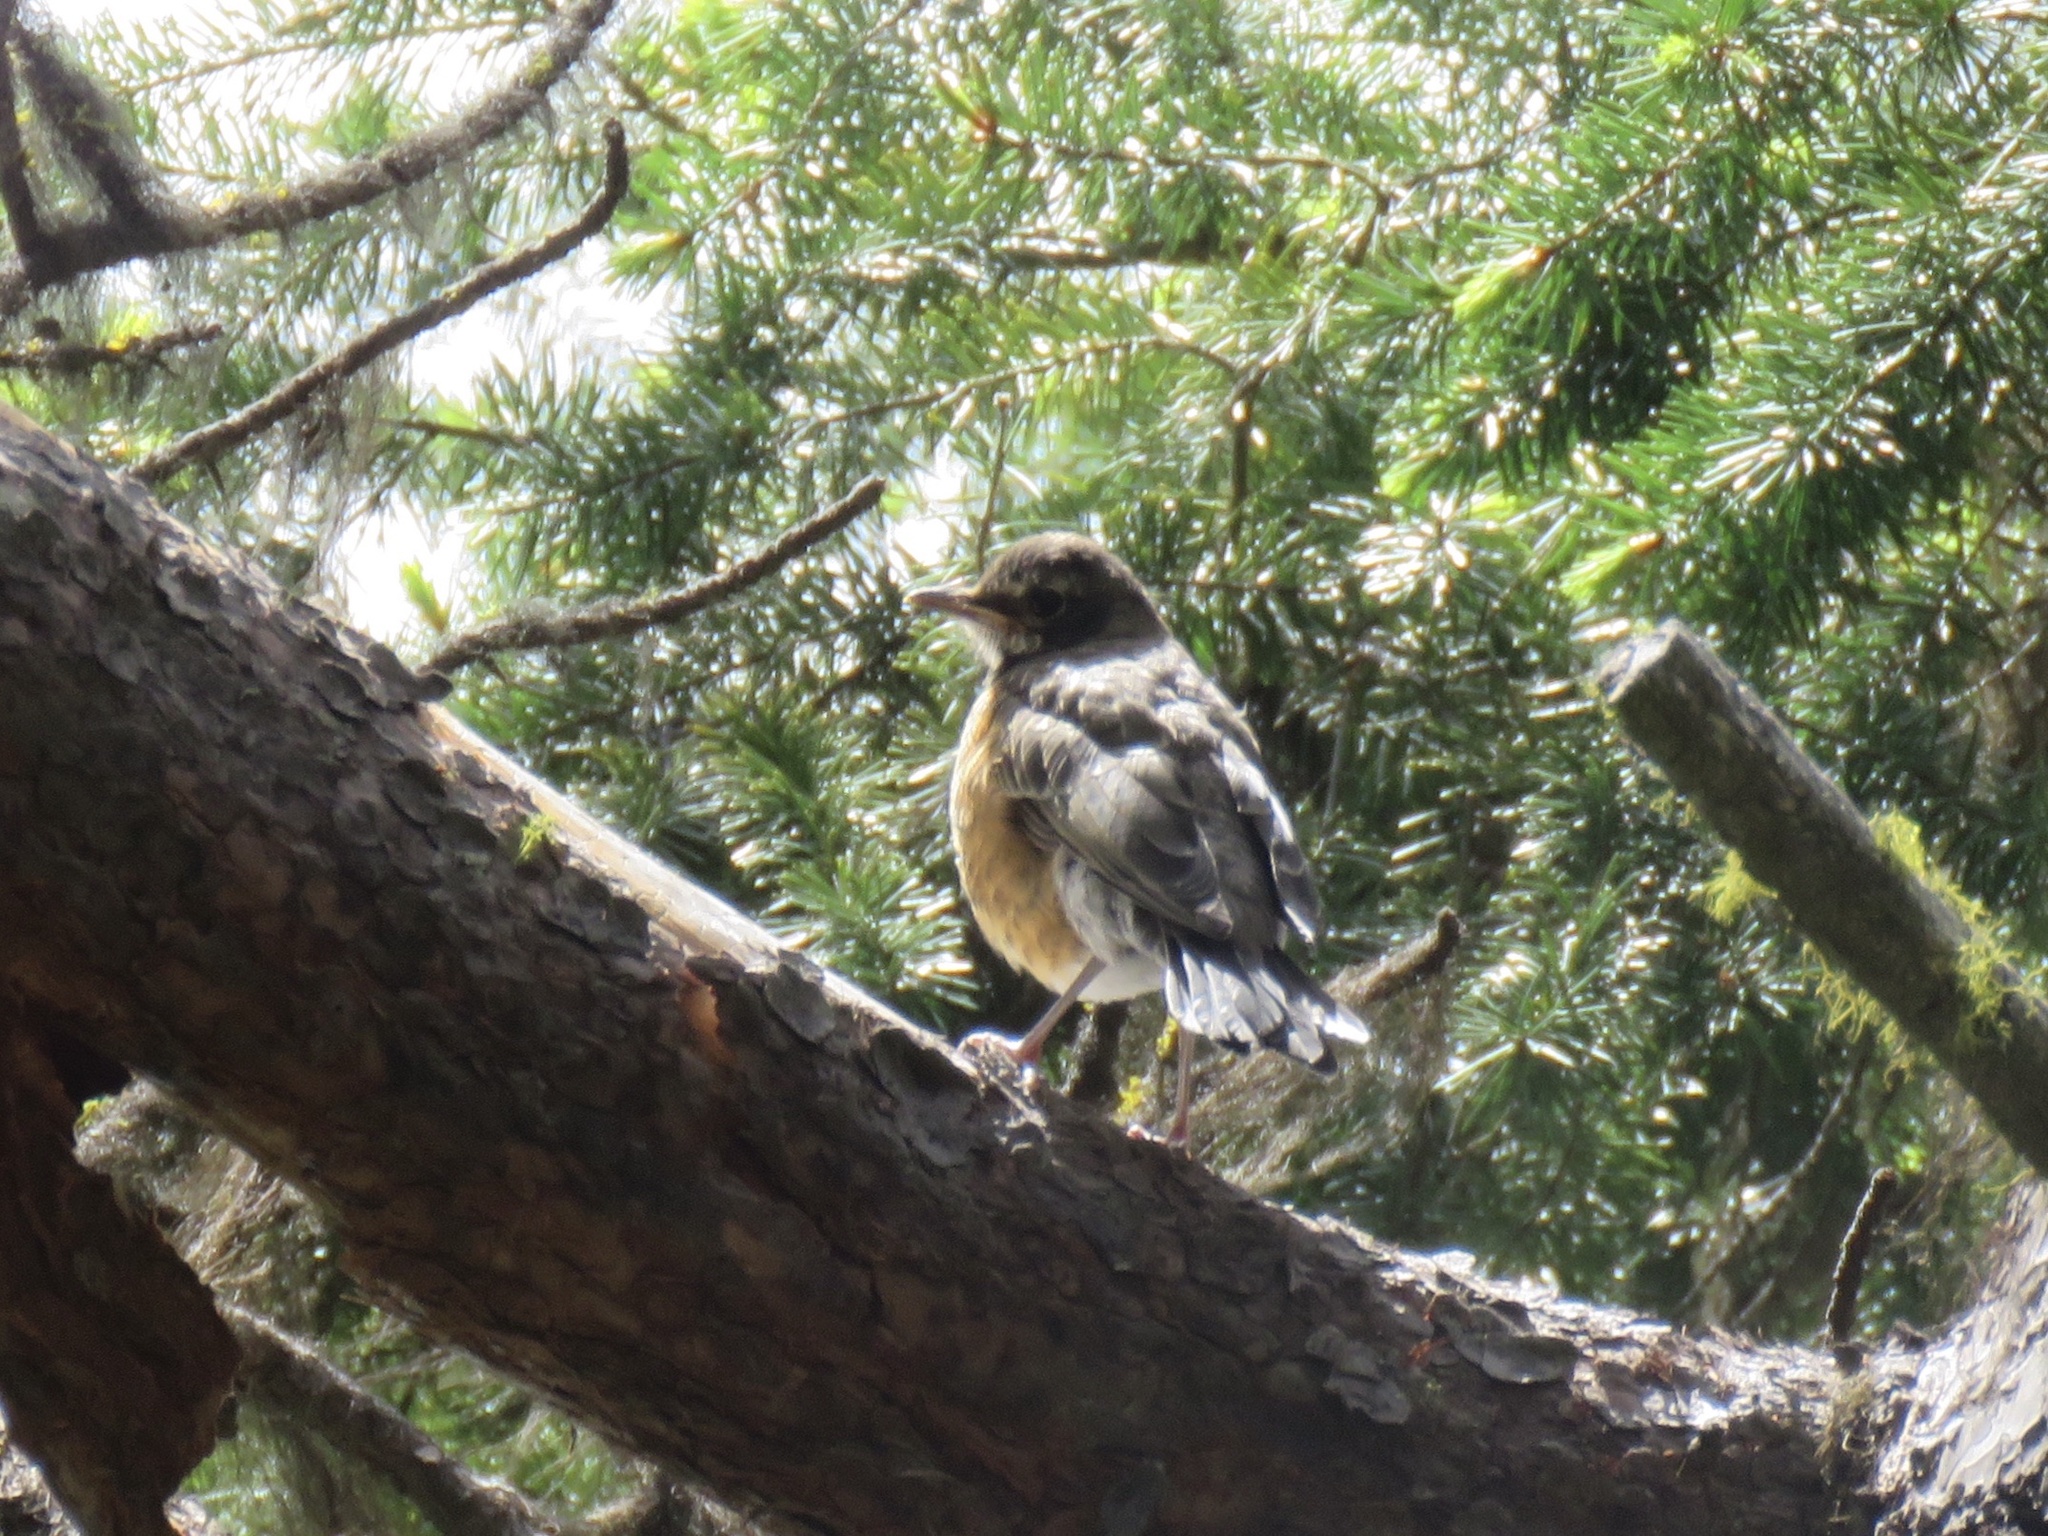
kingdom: Animalia
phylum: Chordata
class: Aves
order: Passeriformes
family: Turdidae
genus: Turdus
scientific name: Turdus migratorius
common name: American robin
